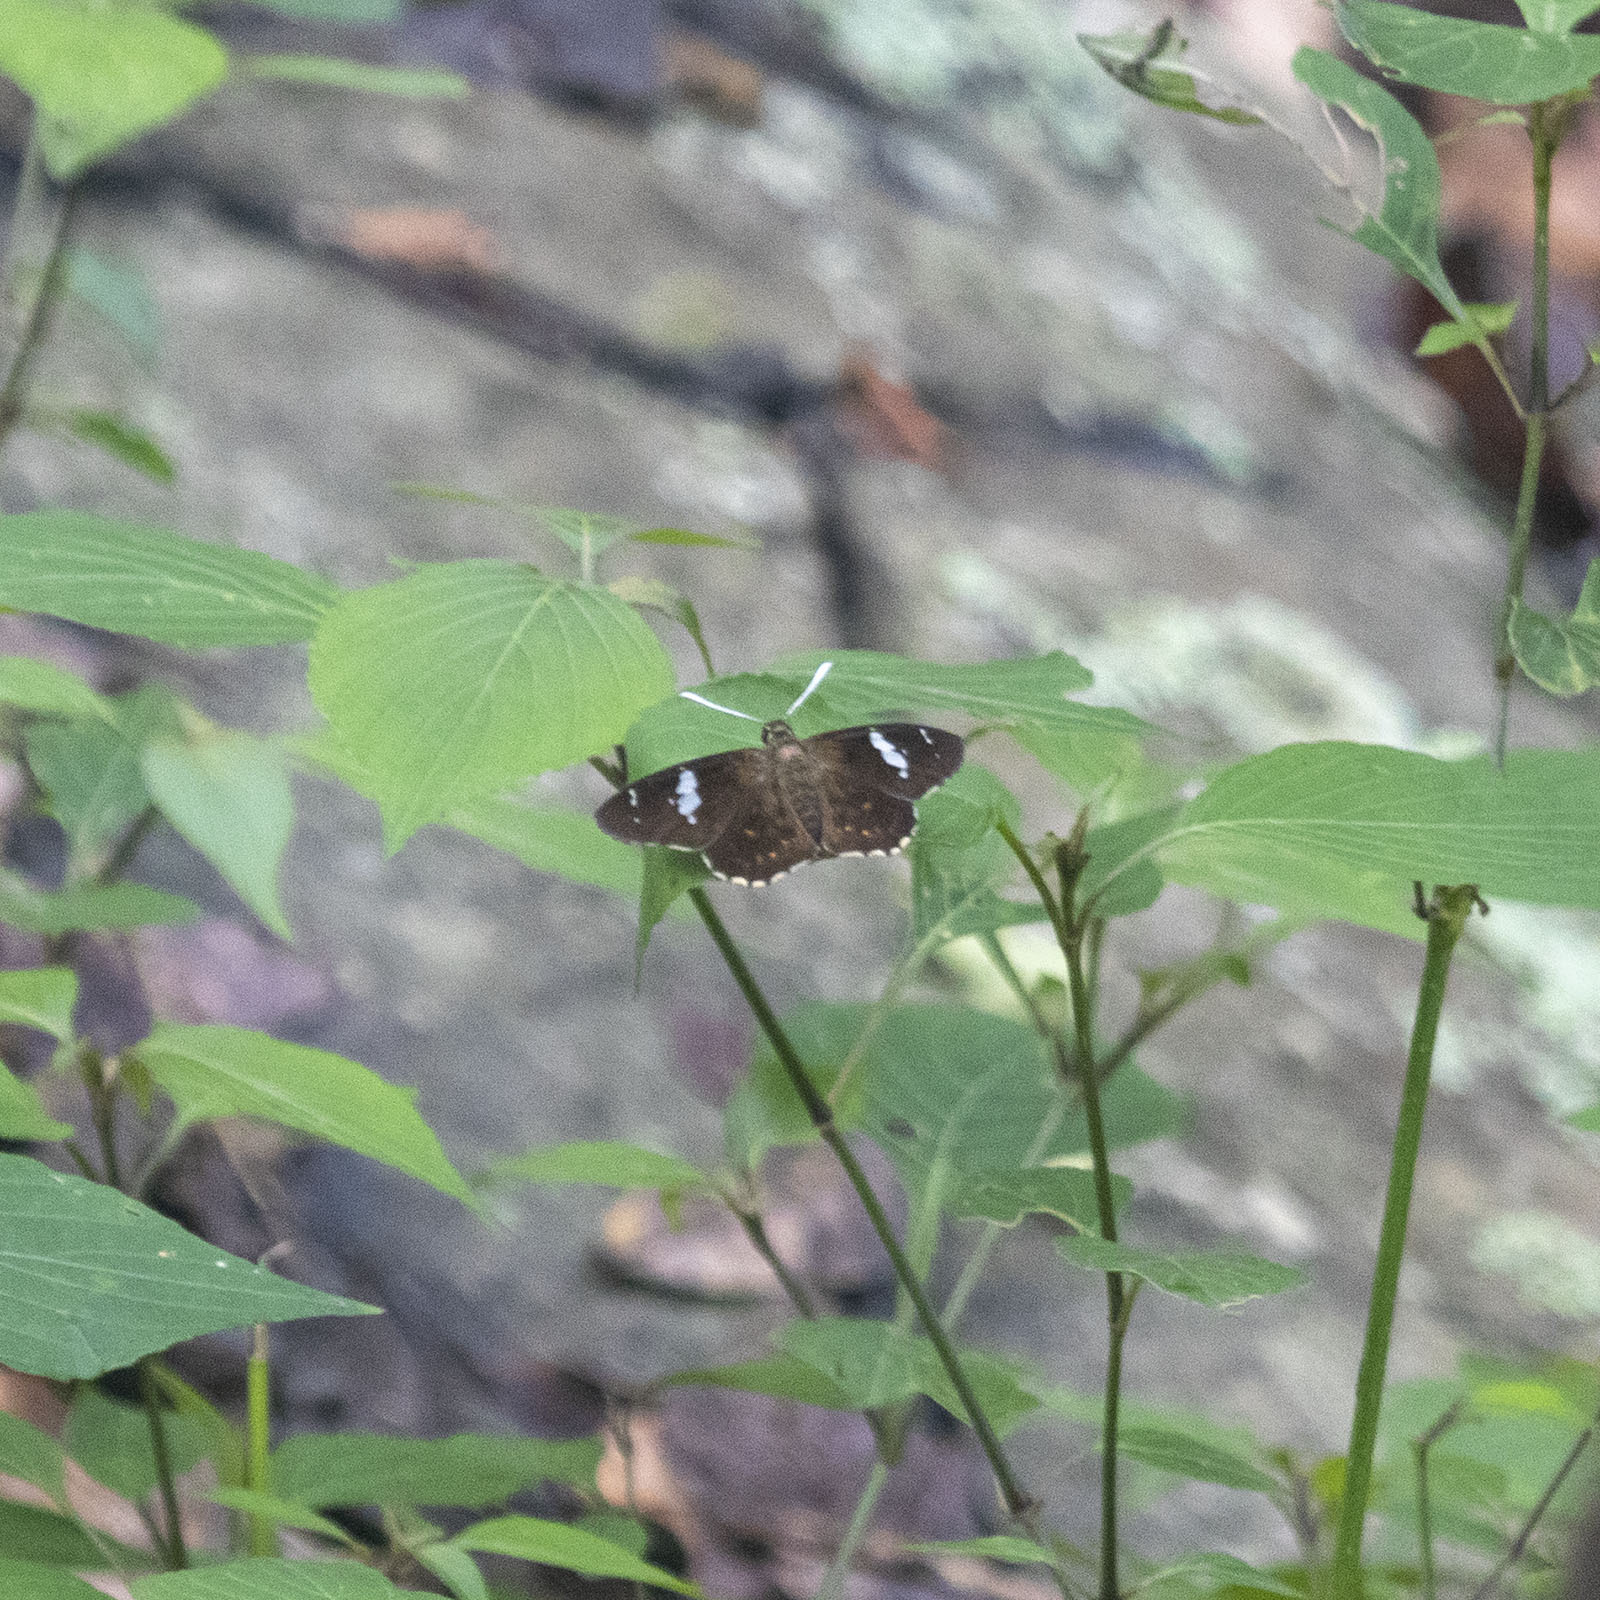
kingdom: Animalia
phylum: Arthropoda
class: Insecta
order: Lepidoptera
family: Hesperiidae
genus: Celaenorrhinus
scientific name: Celaenorrhinus leucocera
